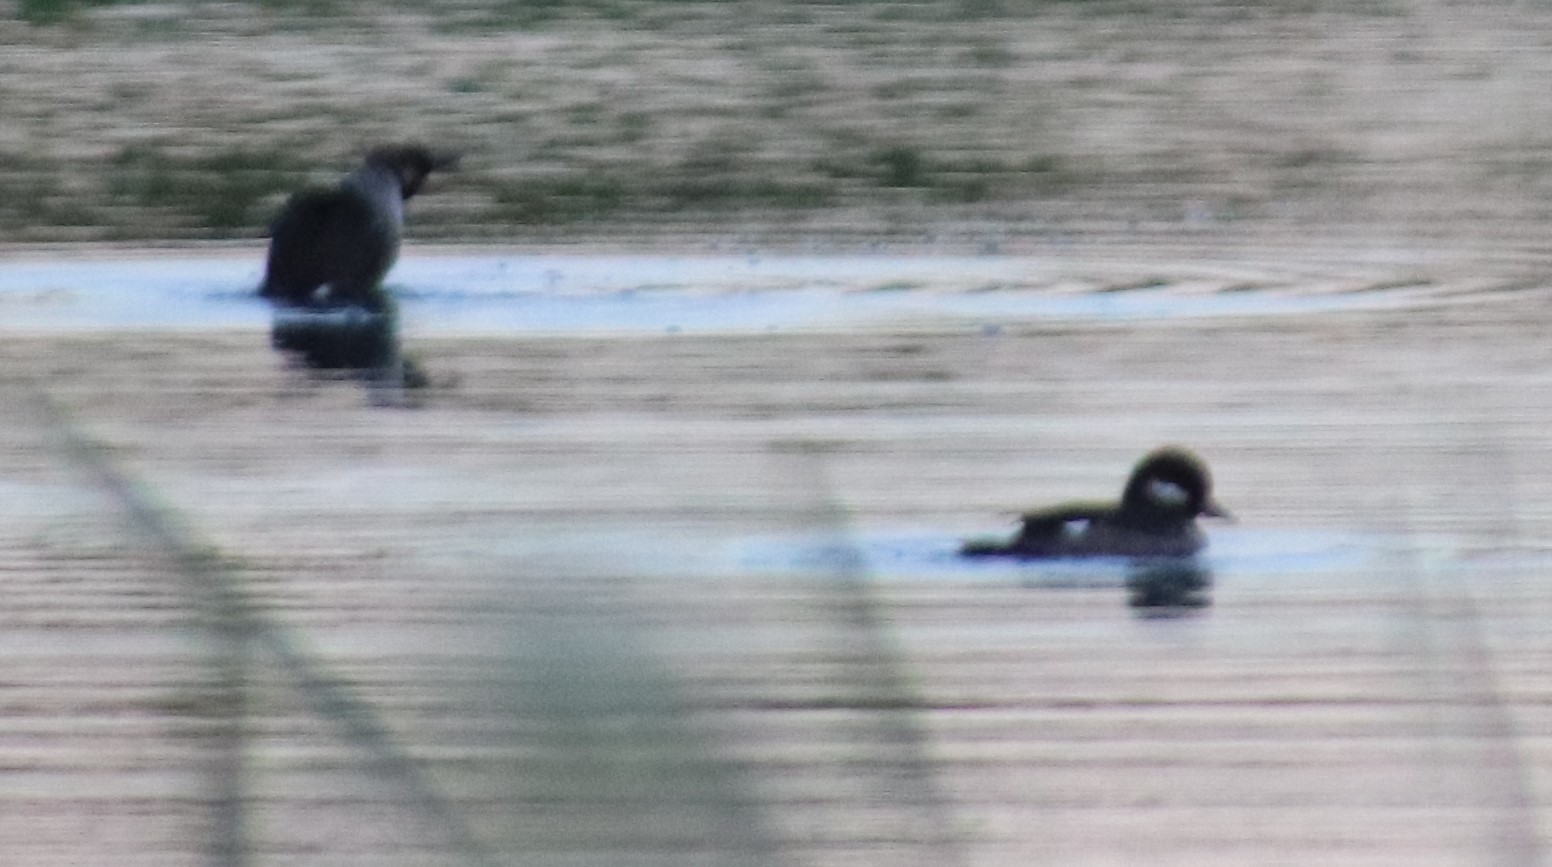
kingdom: Animalia
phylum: Chordata
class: Aves
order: Anseriformes
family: Anatidae
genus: Bucephala
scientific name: Bucephala albeola
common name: Bufflehead
